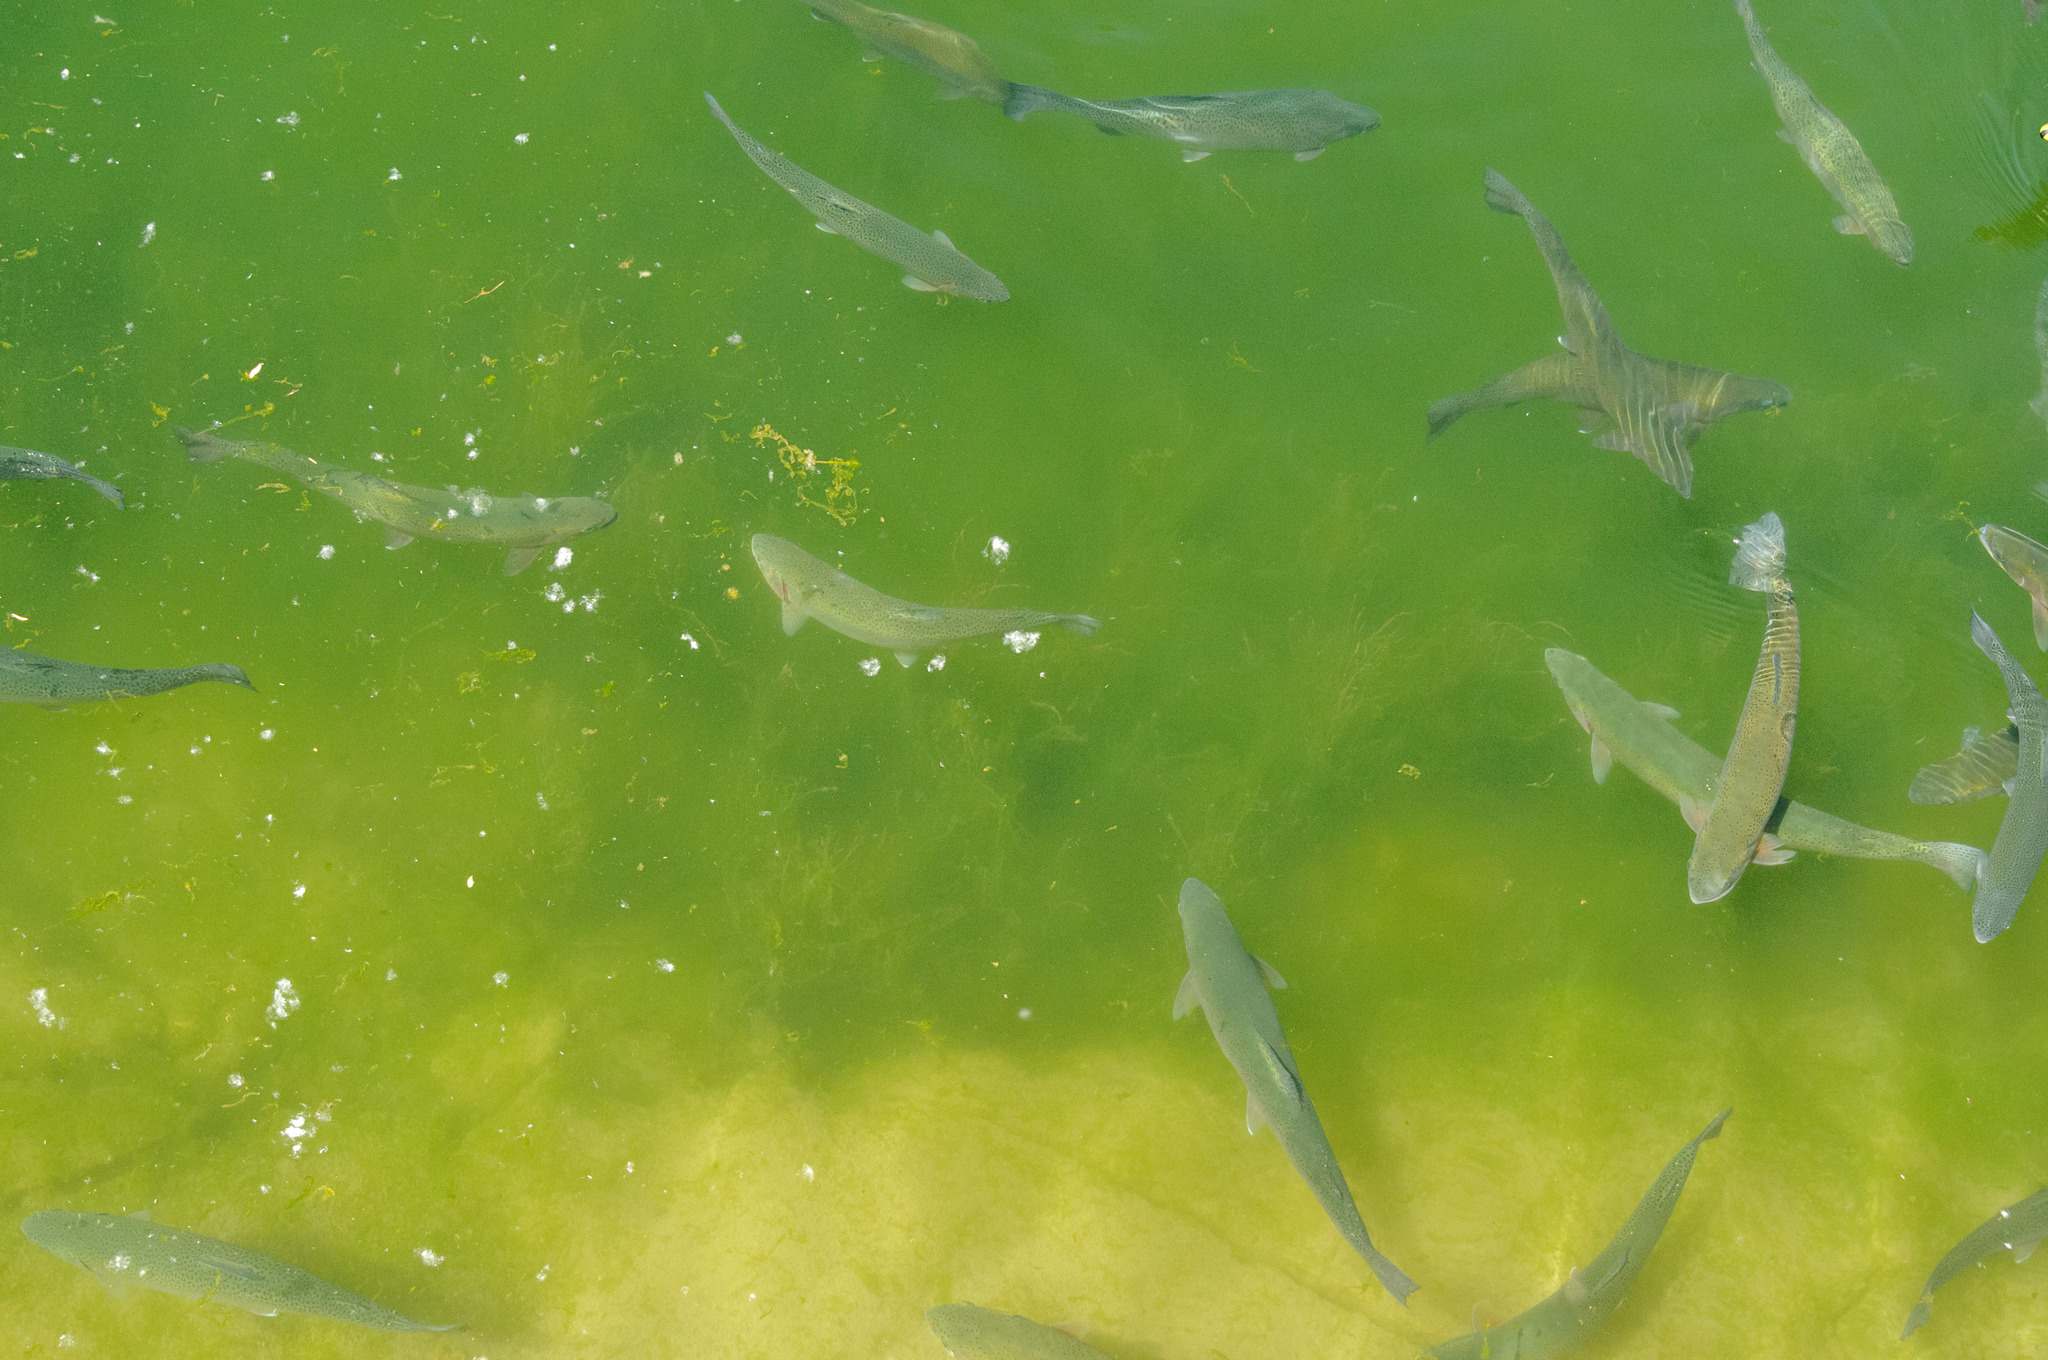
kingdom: Animalia
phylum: Chordata
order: Salmoniformes
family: Salmonidae
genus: Oncorhynchus
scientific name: Oncorhynchus mykiss
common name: Rainbow trout
